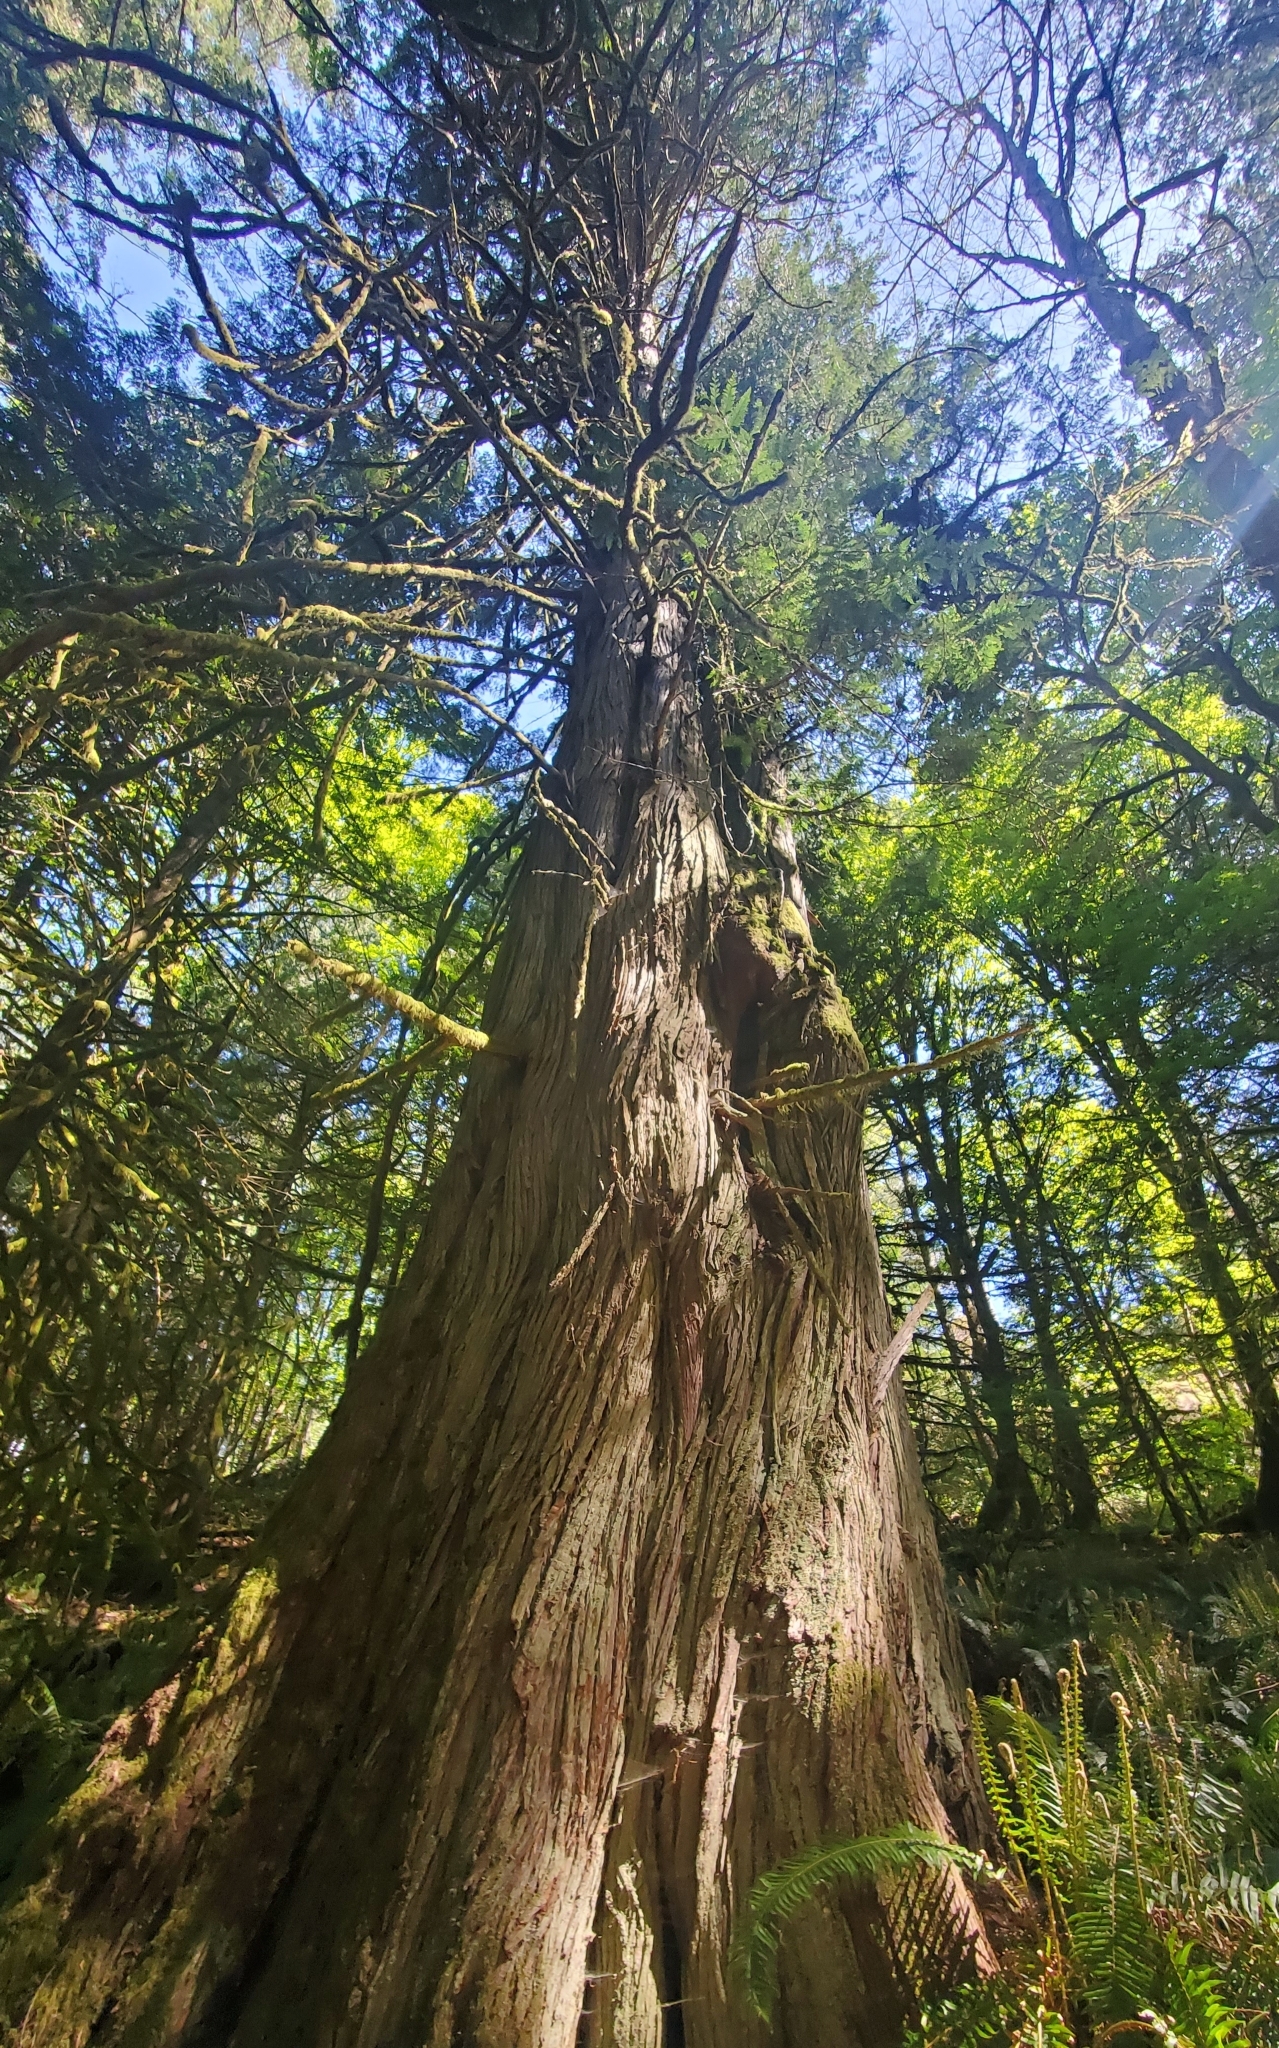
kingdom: Plantae
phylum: Tracheophyta
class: Pinopsida
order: Pinales
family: Cupressaceae
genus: Thuja
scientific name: Thuja plicata
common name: Western red-cedar
